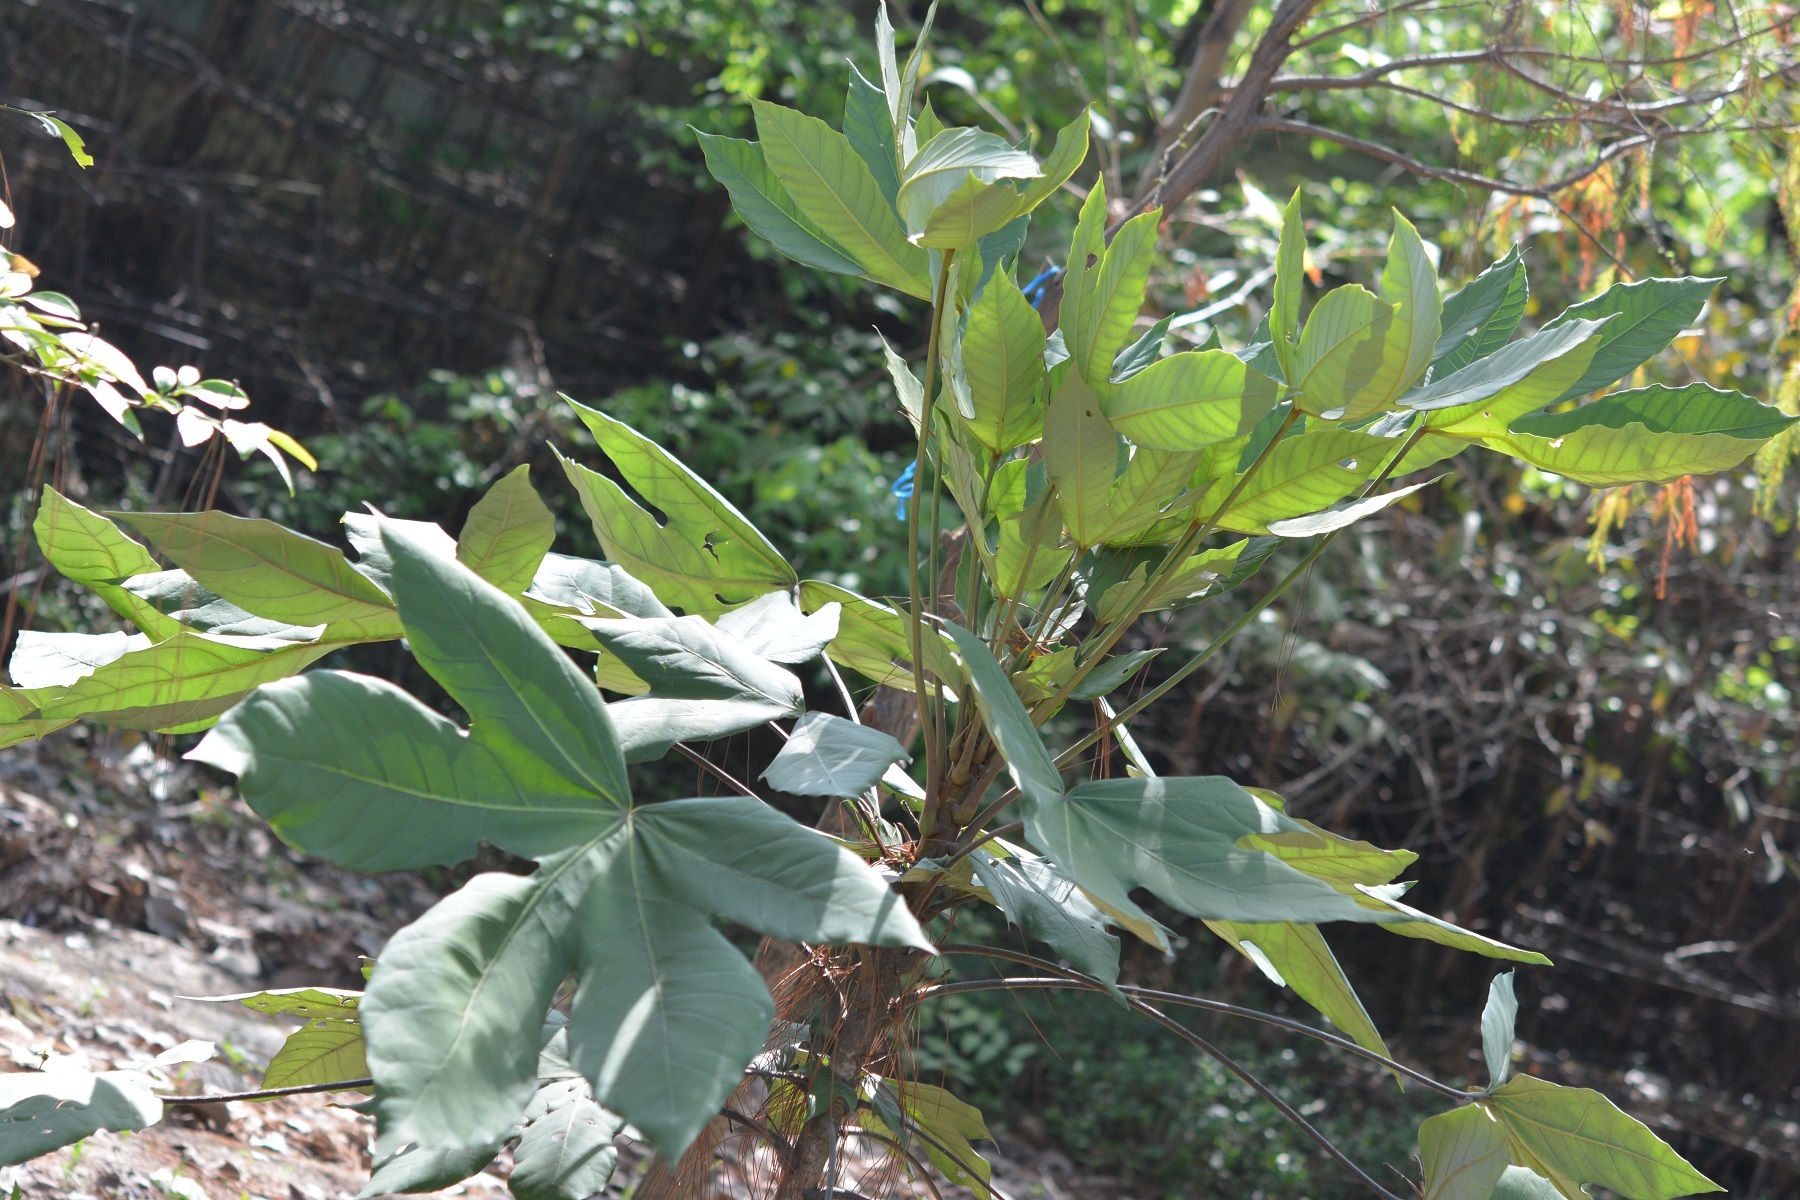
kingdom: Plantae
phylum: Tracheophyta
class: Magnoliopsida
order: Apiales
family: Araliaceae
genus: Oreopanax
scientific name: Oreopanax peltatus
